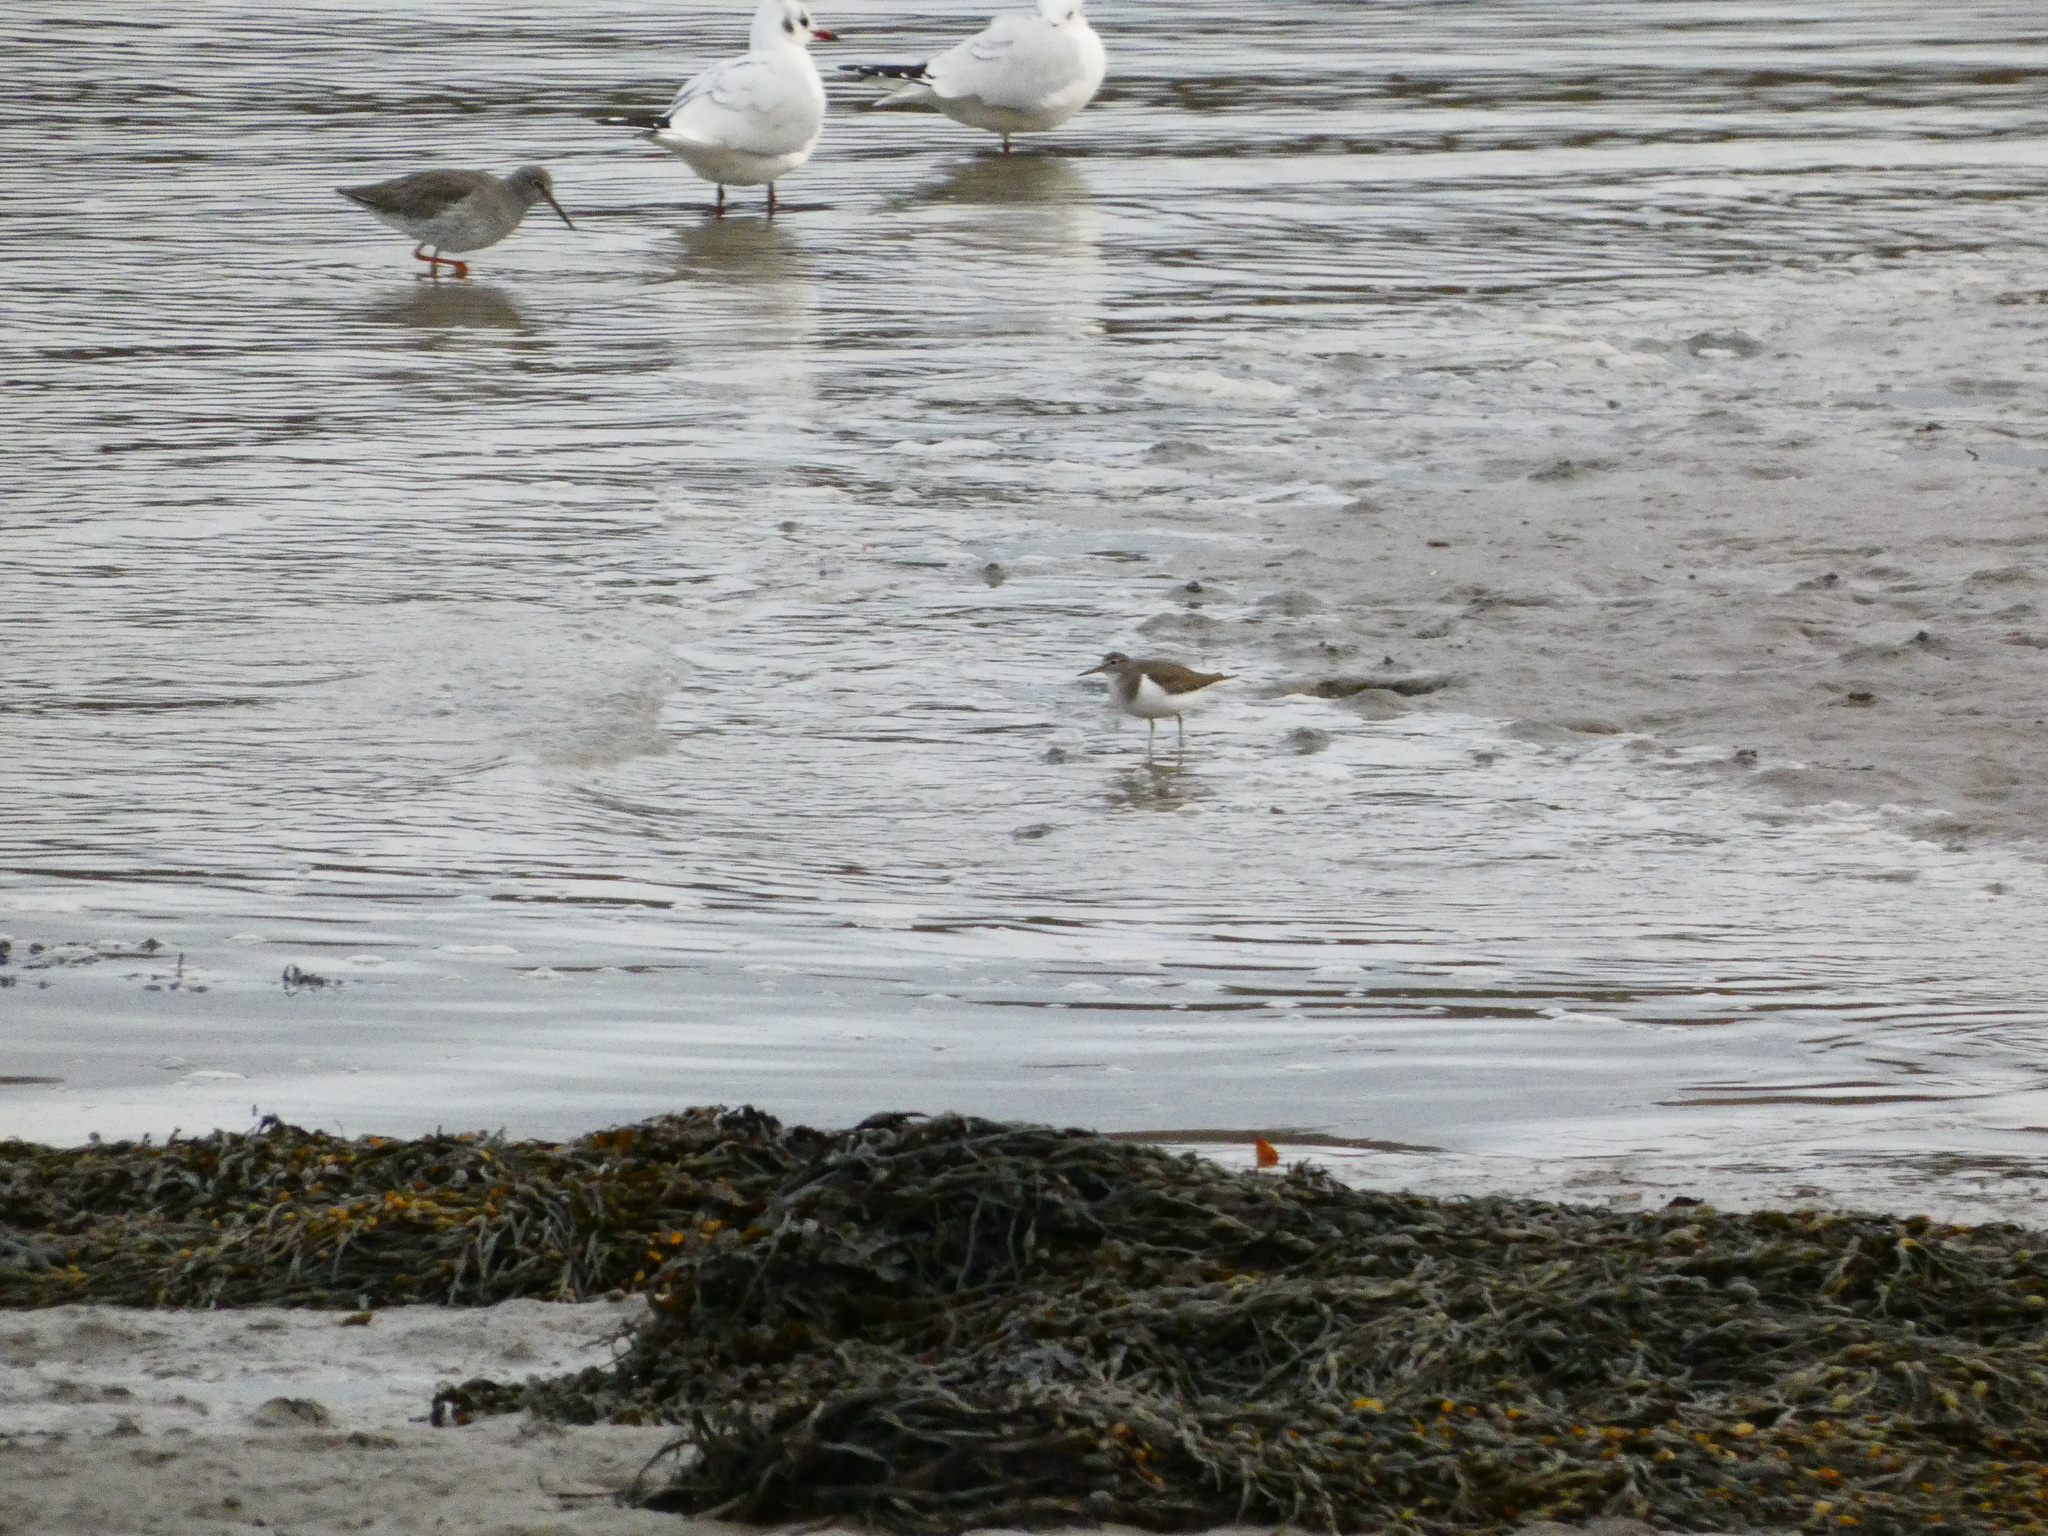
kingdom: Animalia
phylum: Chordata
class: Aves
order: Charadriiformes
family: Scolopacidae
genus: Actitis
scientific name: Actitis hypoleucos
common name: Common sandpiper
